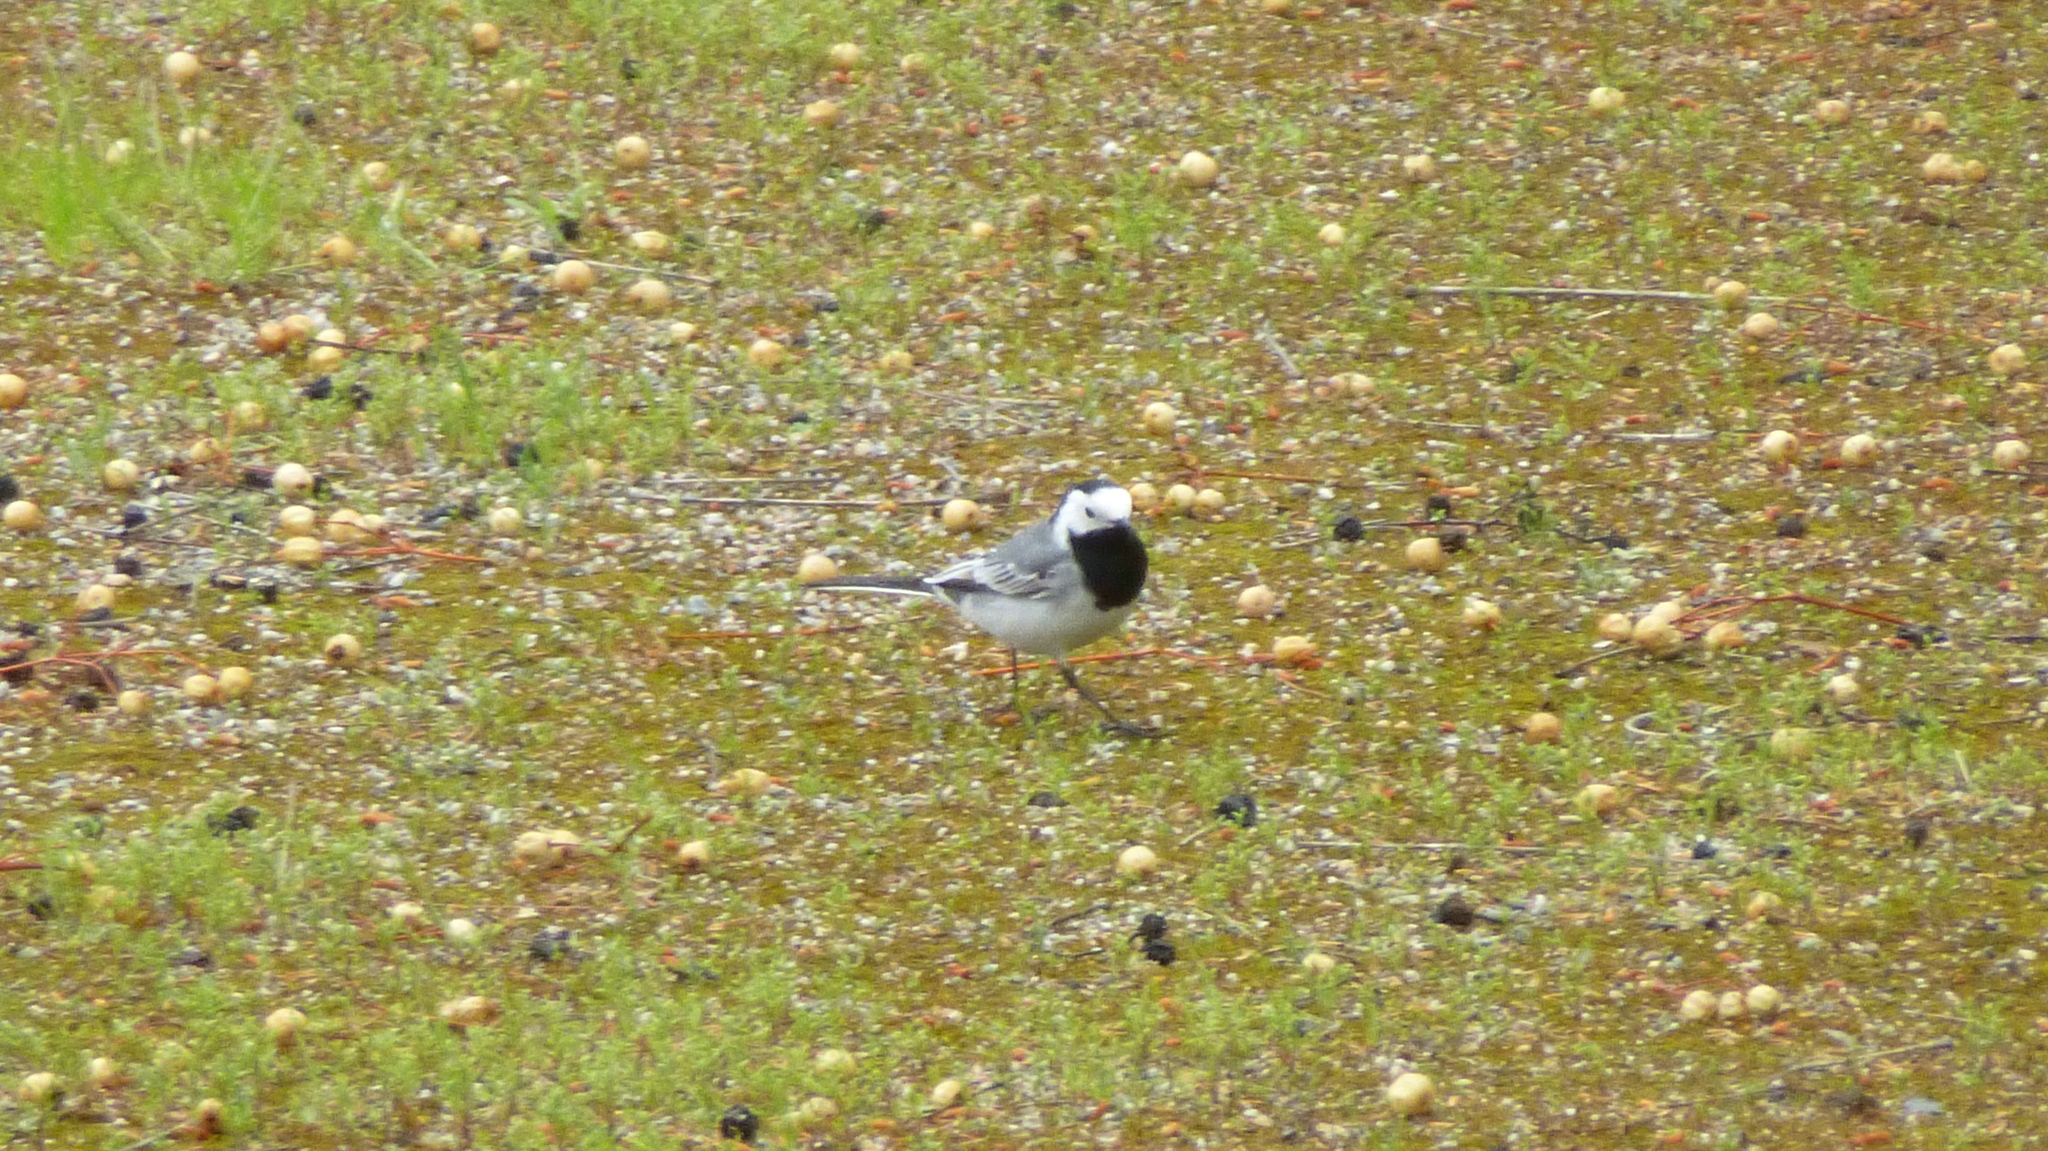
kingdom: Animalia
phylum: Chordata
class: Aves
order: Passeriformes
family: Motacillidae
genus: Motacilla
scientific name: Motacilla alba
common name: White wagtail
